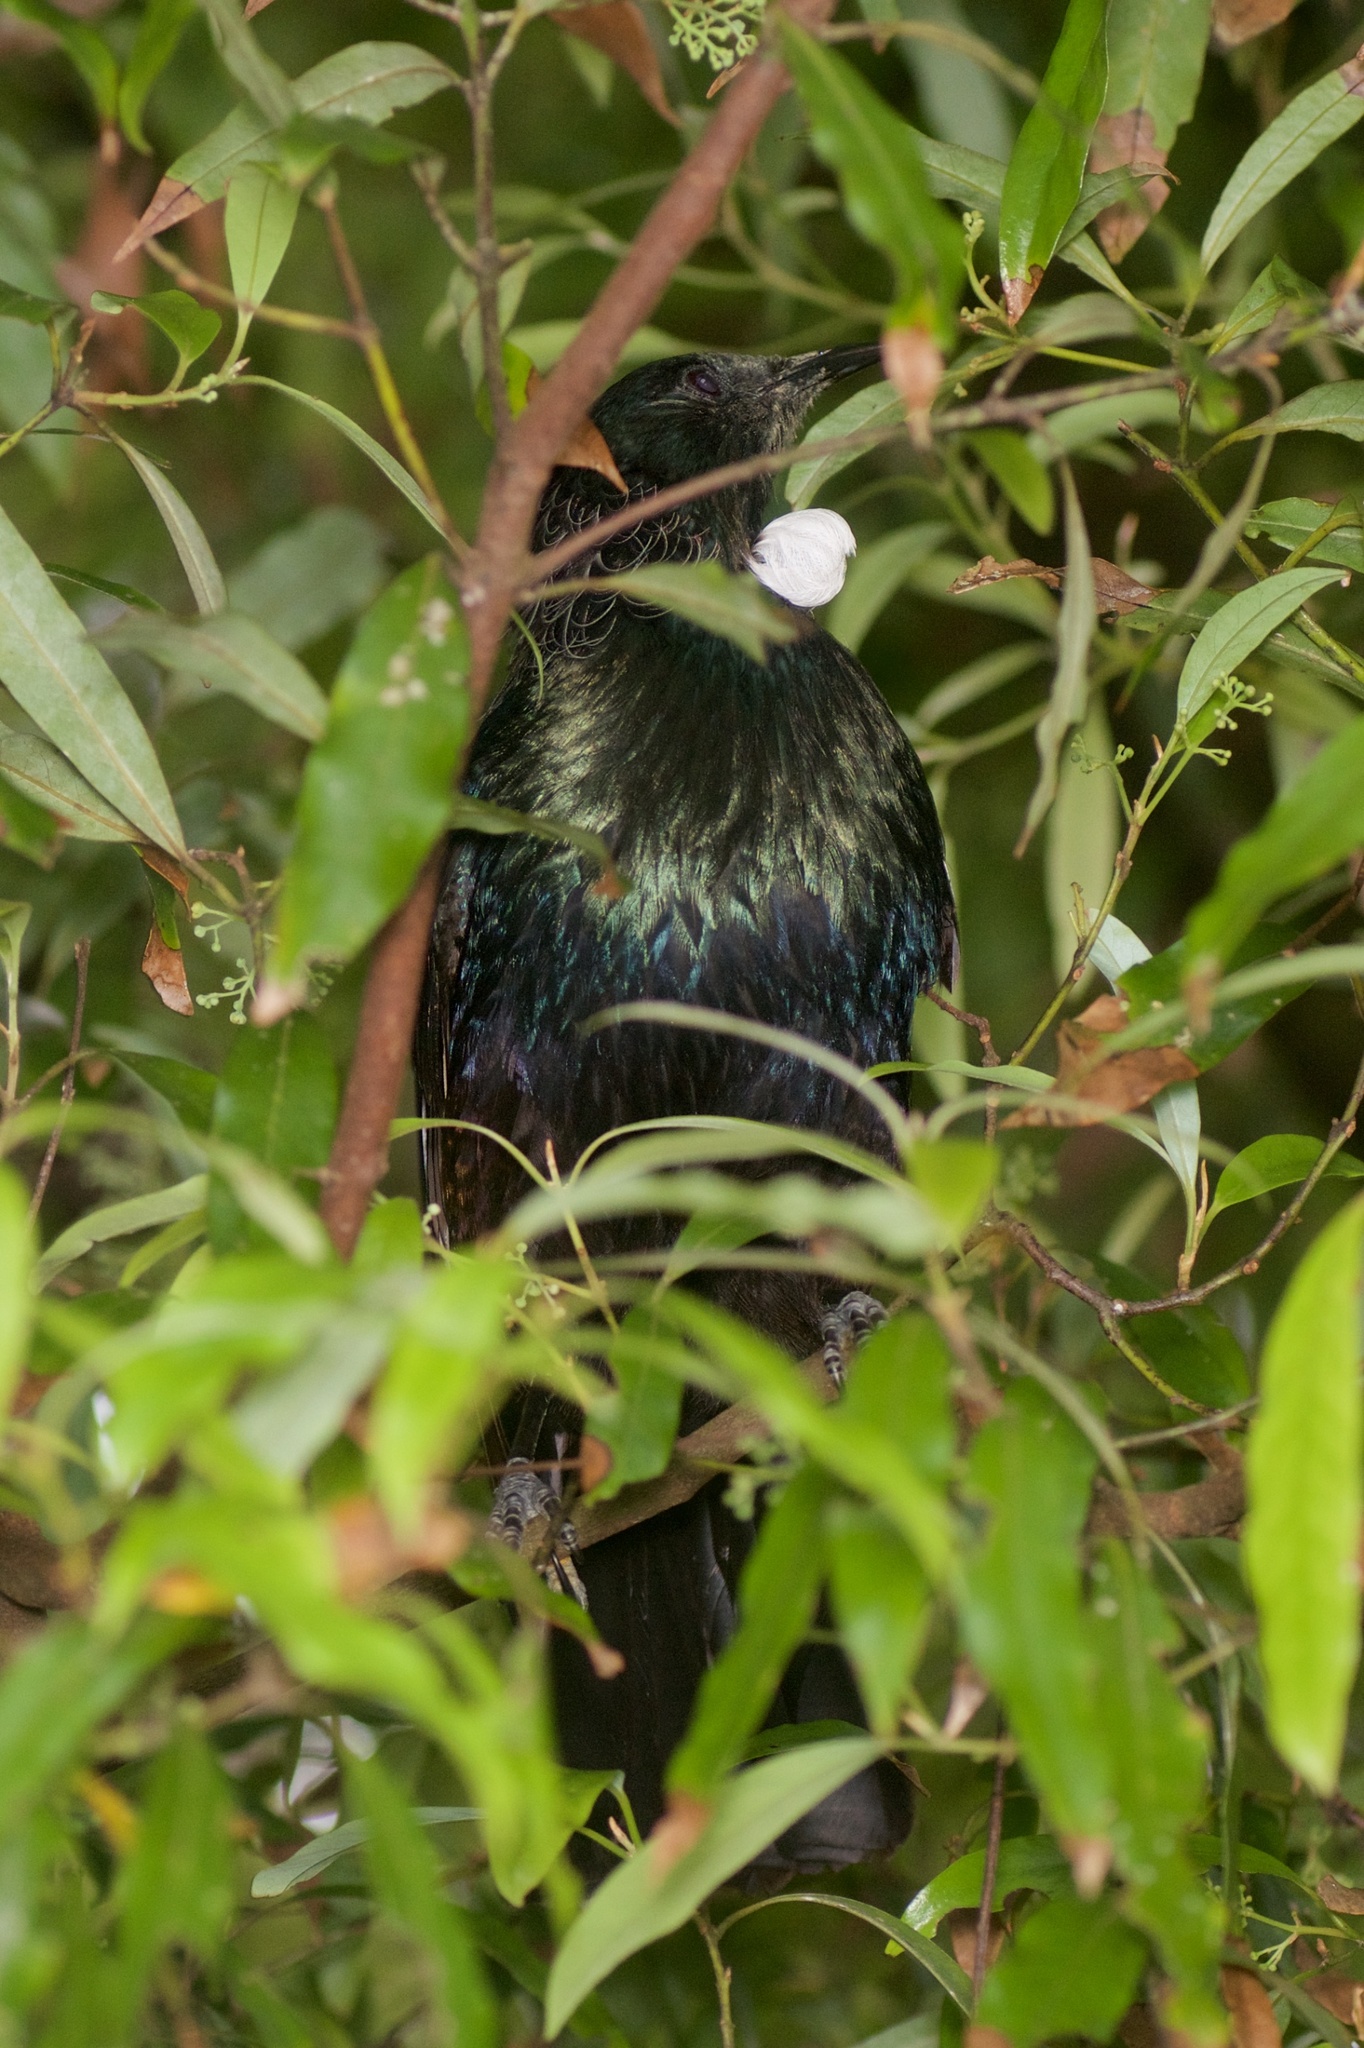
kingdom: Animalia
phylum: Chordata
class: Aves
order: Passeriformes
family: Meliphagidae
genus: Prosthemadera
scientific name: Prosthemadera novaeseelandiae
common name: Tui
